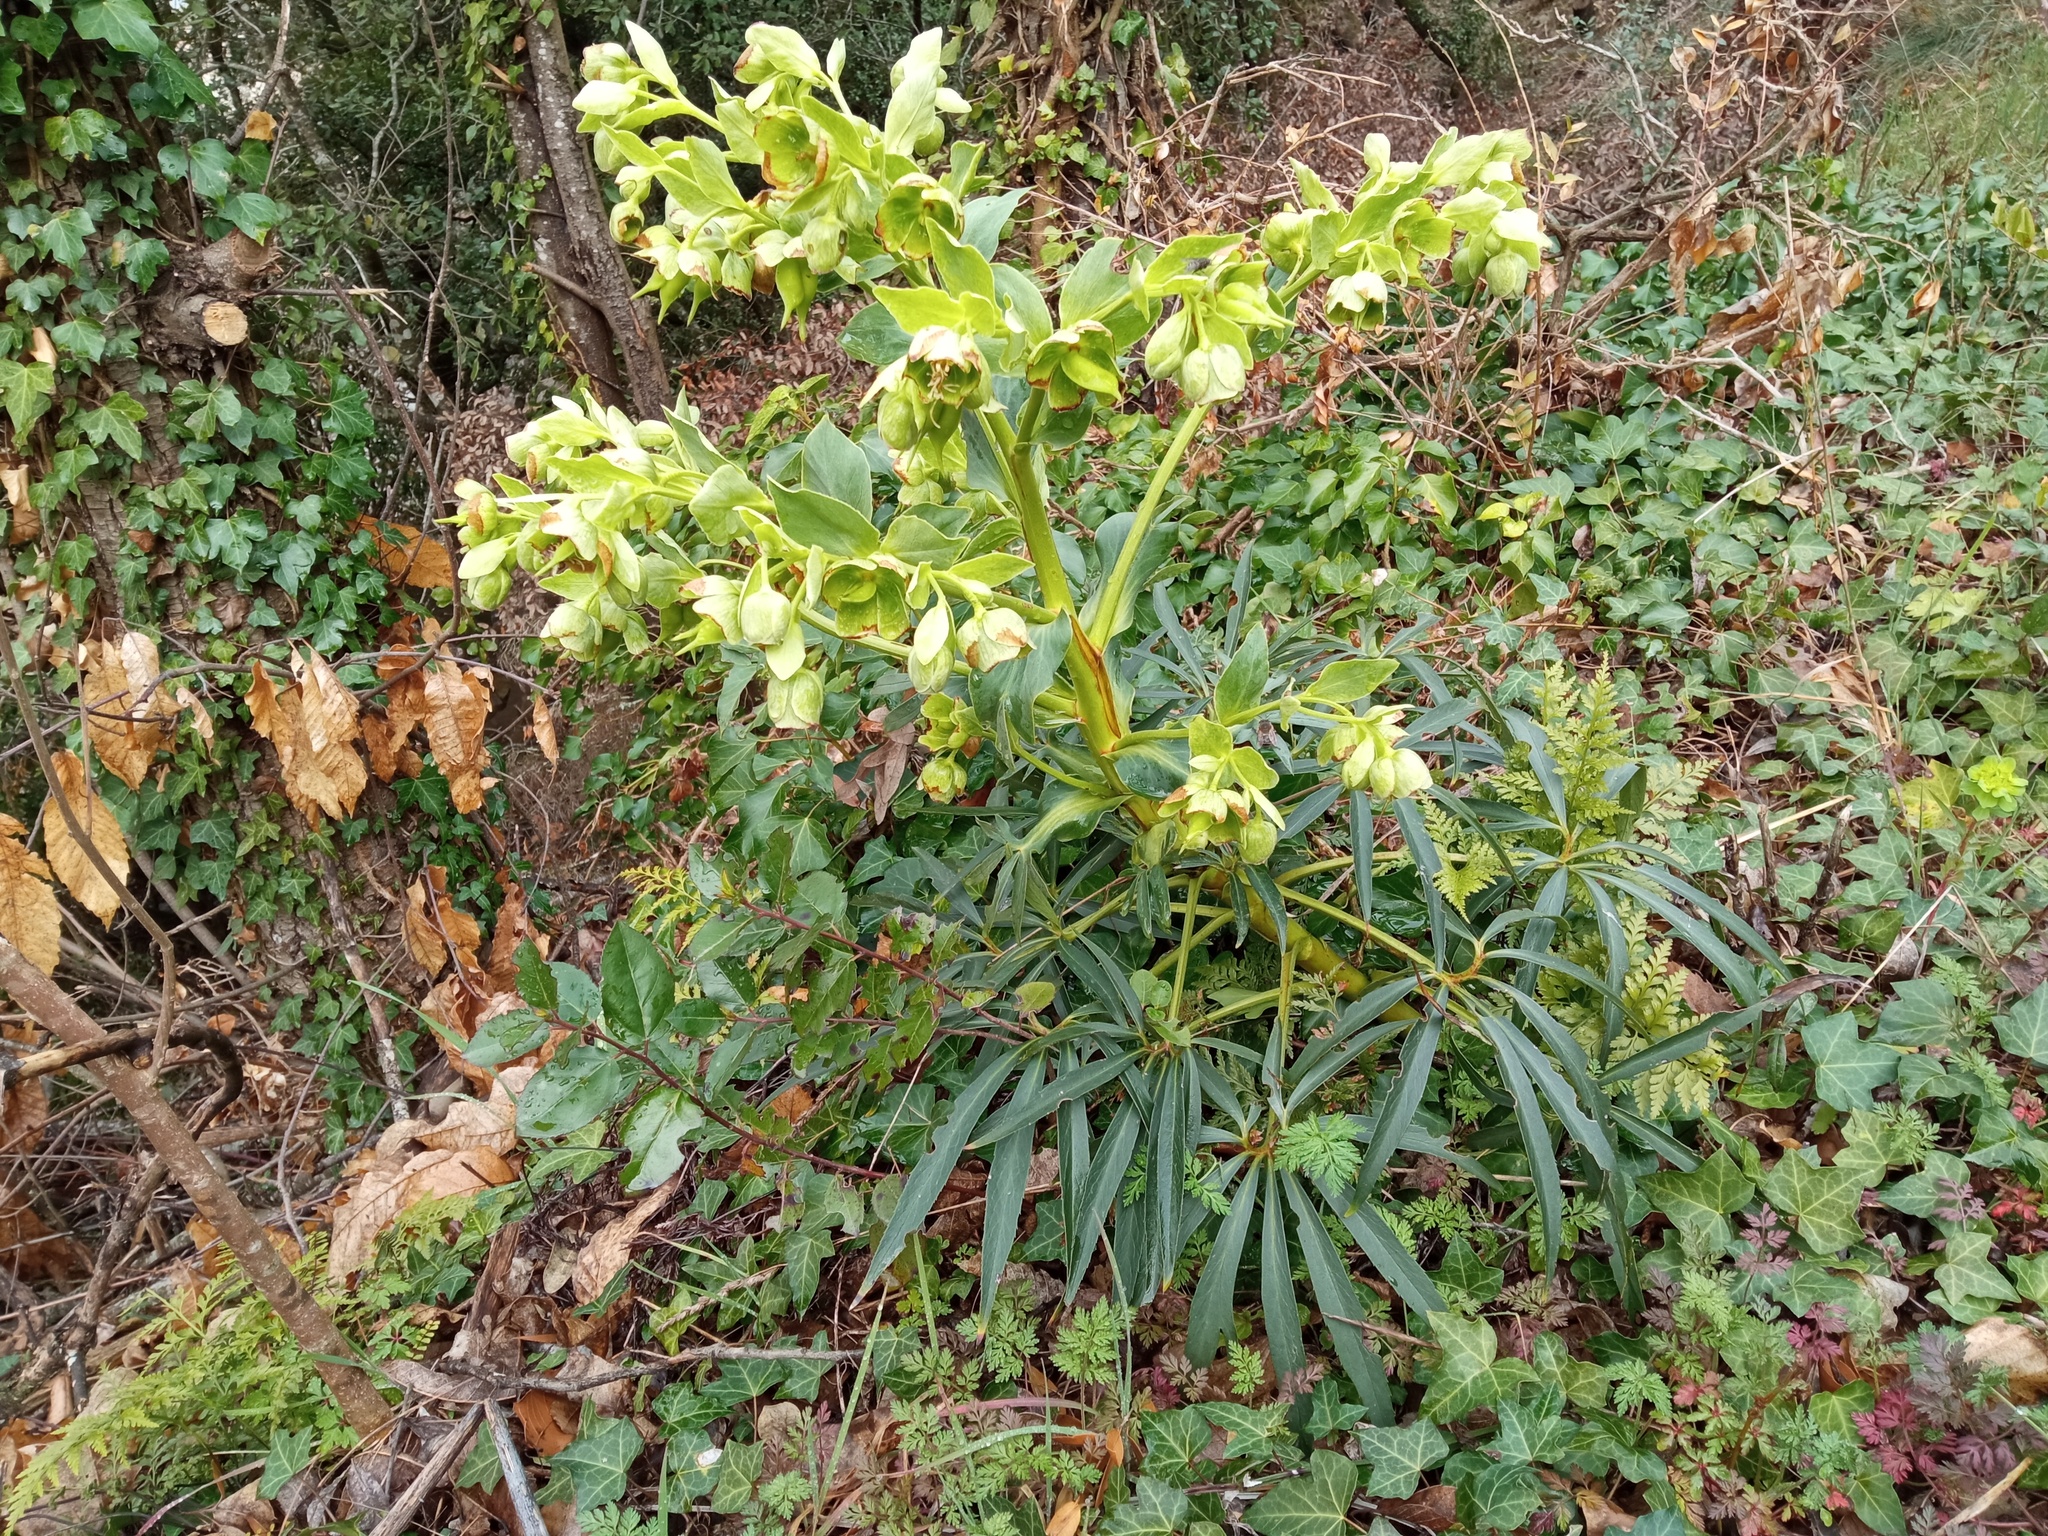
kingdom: Plantae
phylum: Tracheophyta
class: Magnoliopsida
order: Ranunculales
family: Ranunculaceae
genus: Helleborus
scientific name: Helleborus foetidus
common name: Stinking hellebore
